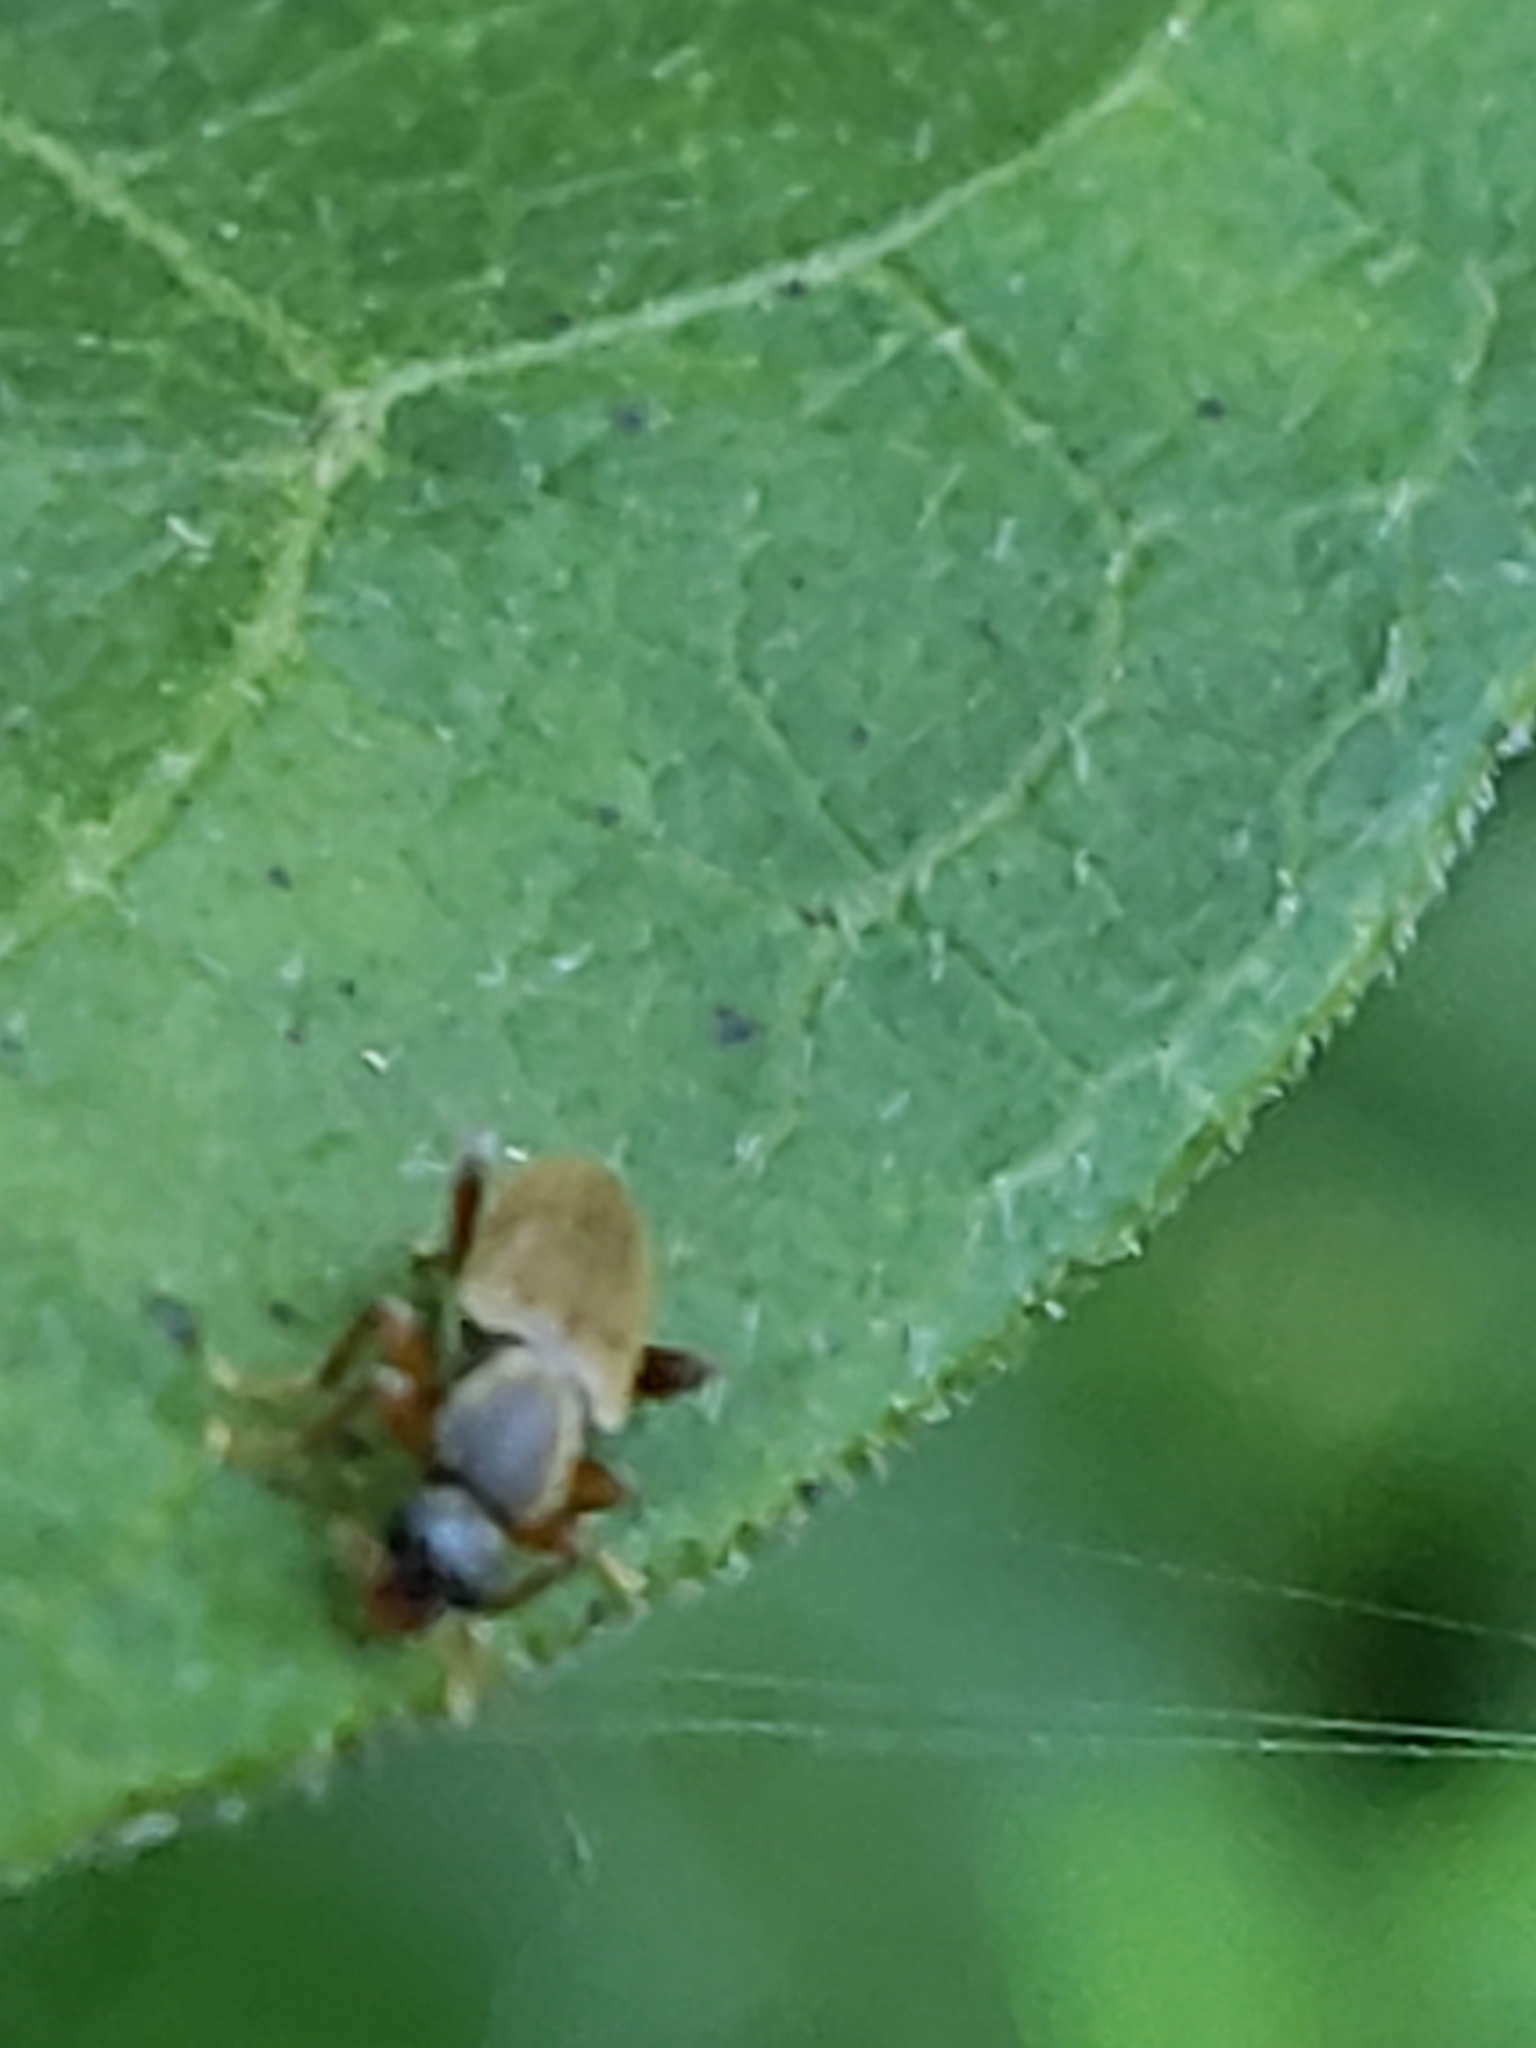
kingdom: Animalia
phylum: Arthropoda
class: Insecta
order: Coleoptera
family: Anthicidae
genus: Macratria
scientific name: Macratria murina
